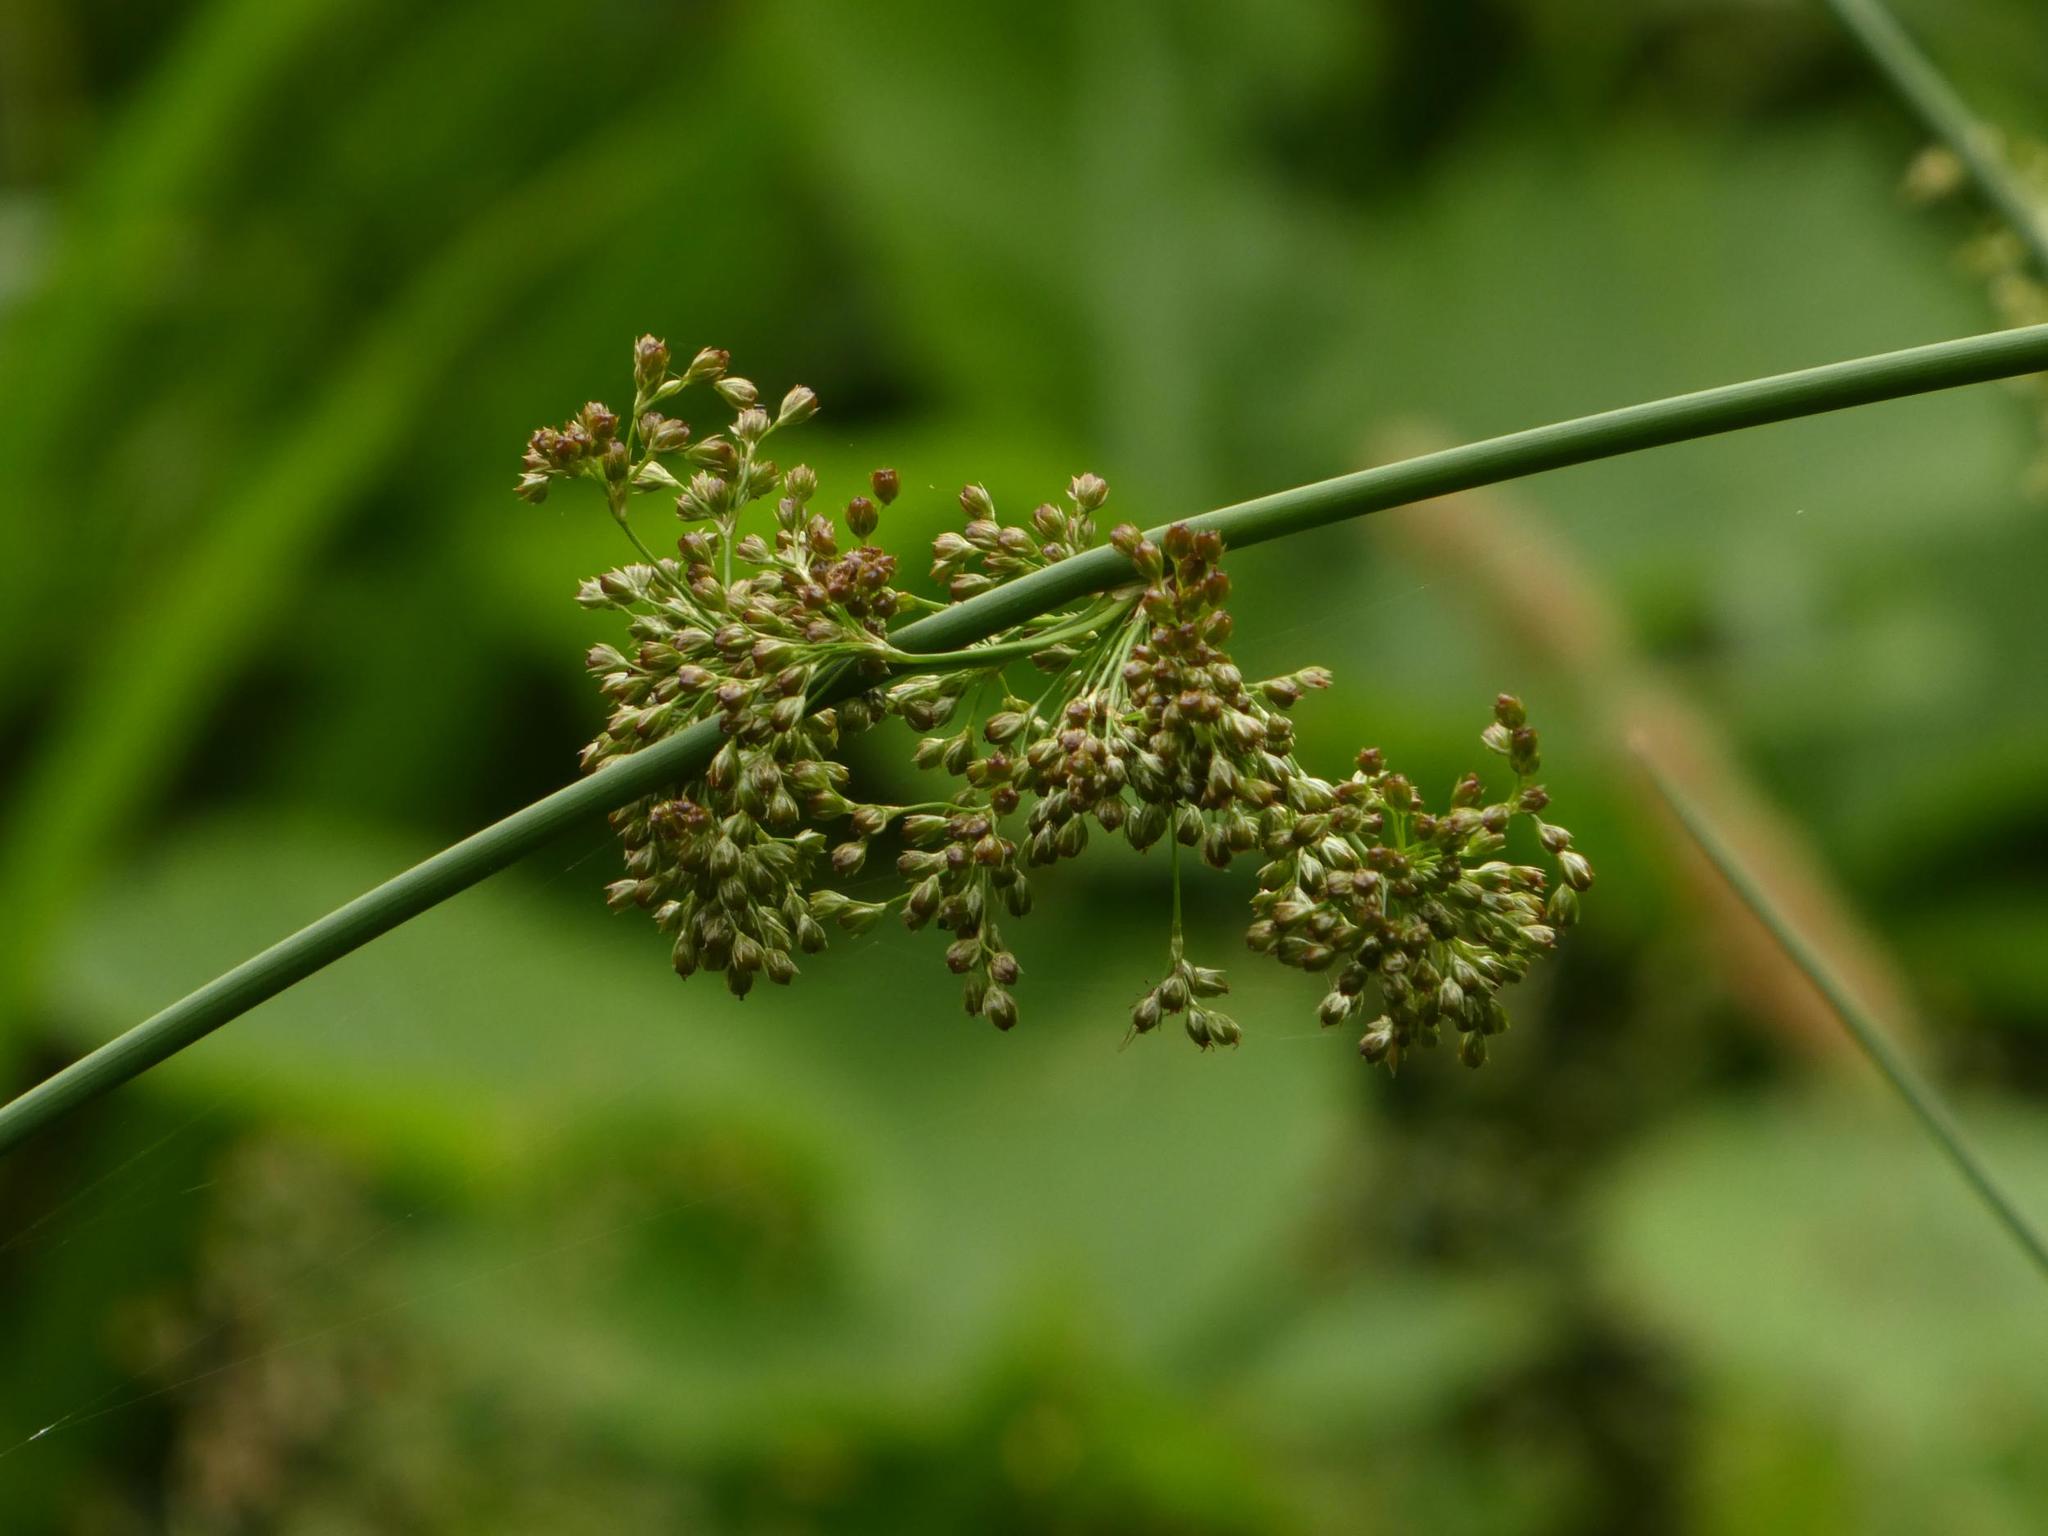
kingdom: Plantae
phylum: Tracheophyta
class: Liliopsida
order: Poales
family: Juncaceae
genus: Juncus
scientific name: Juncus effusus
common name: Soft rush
